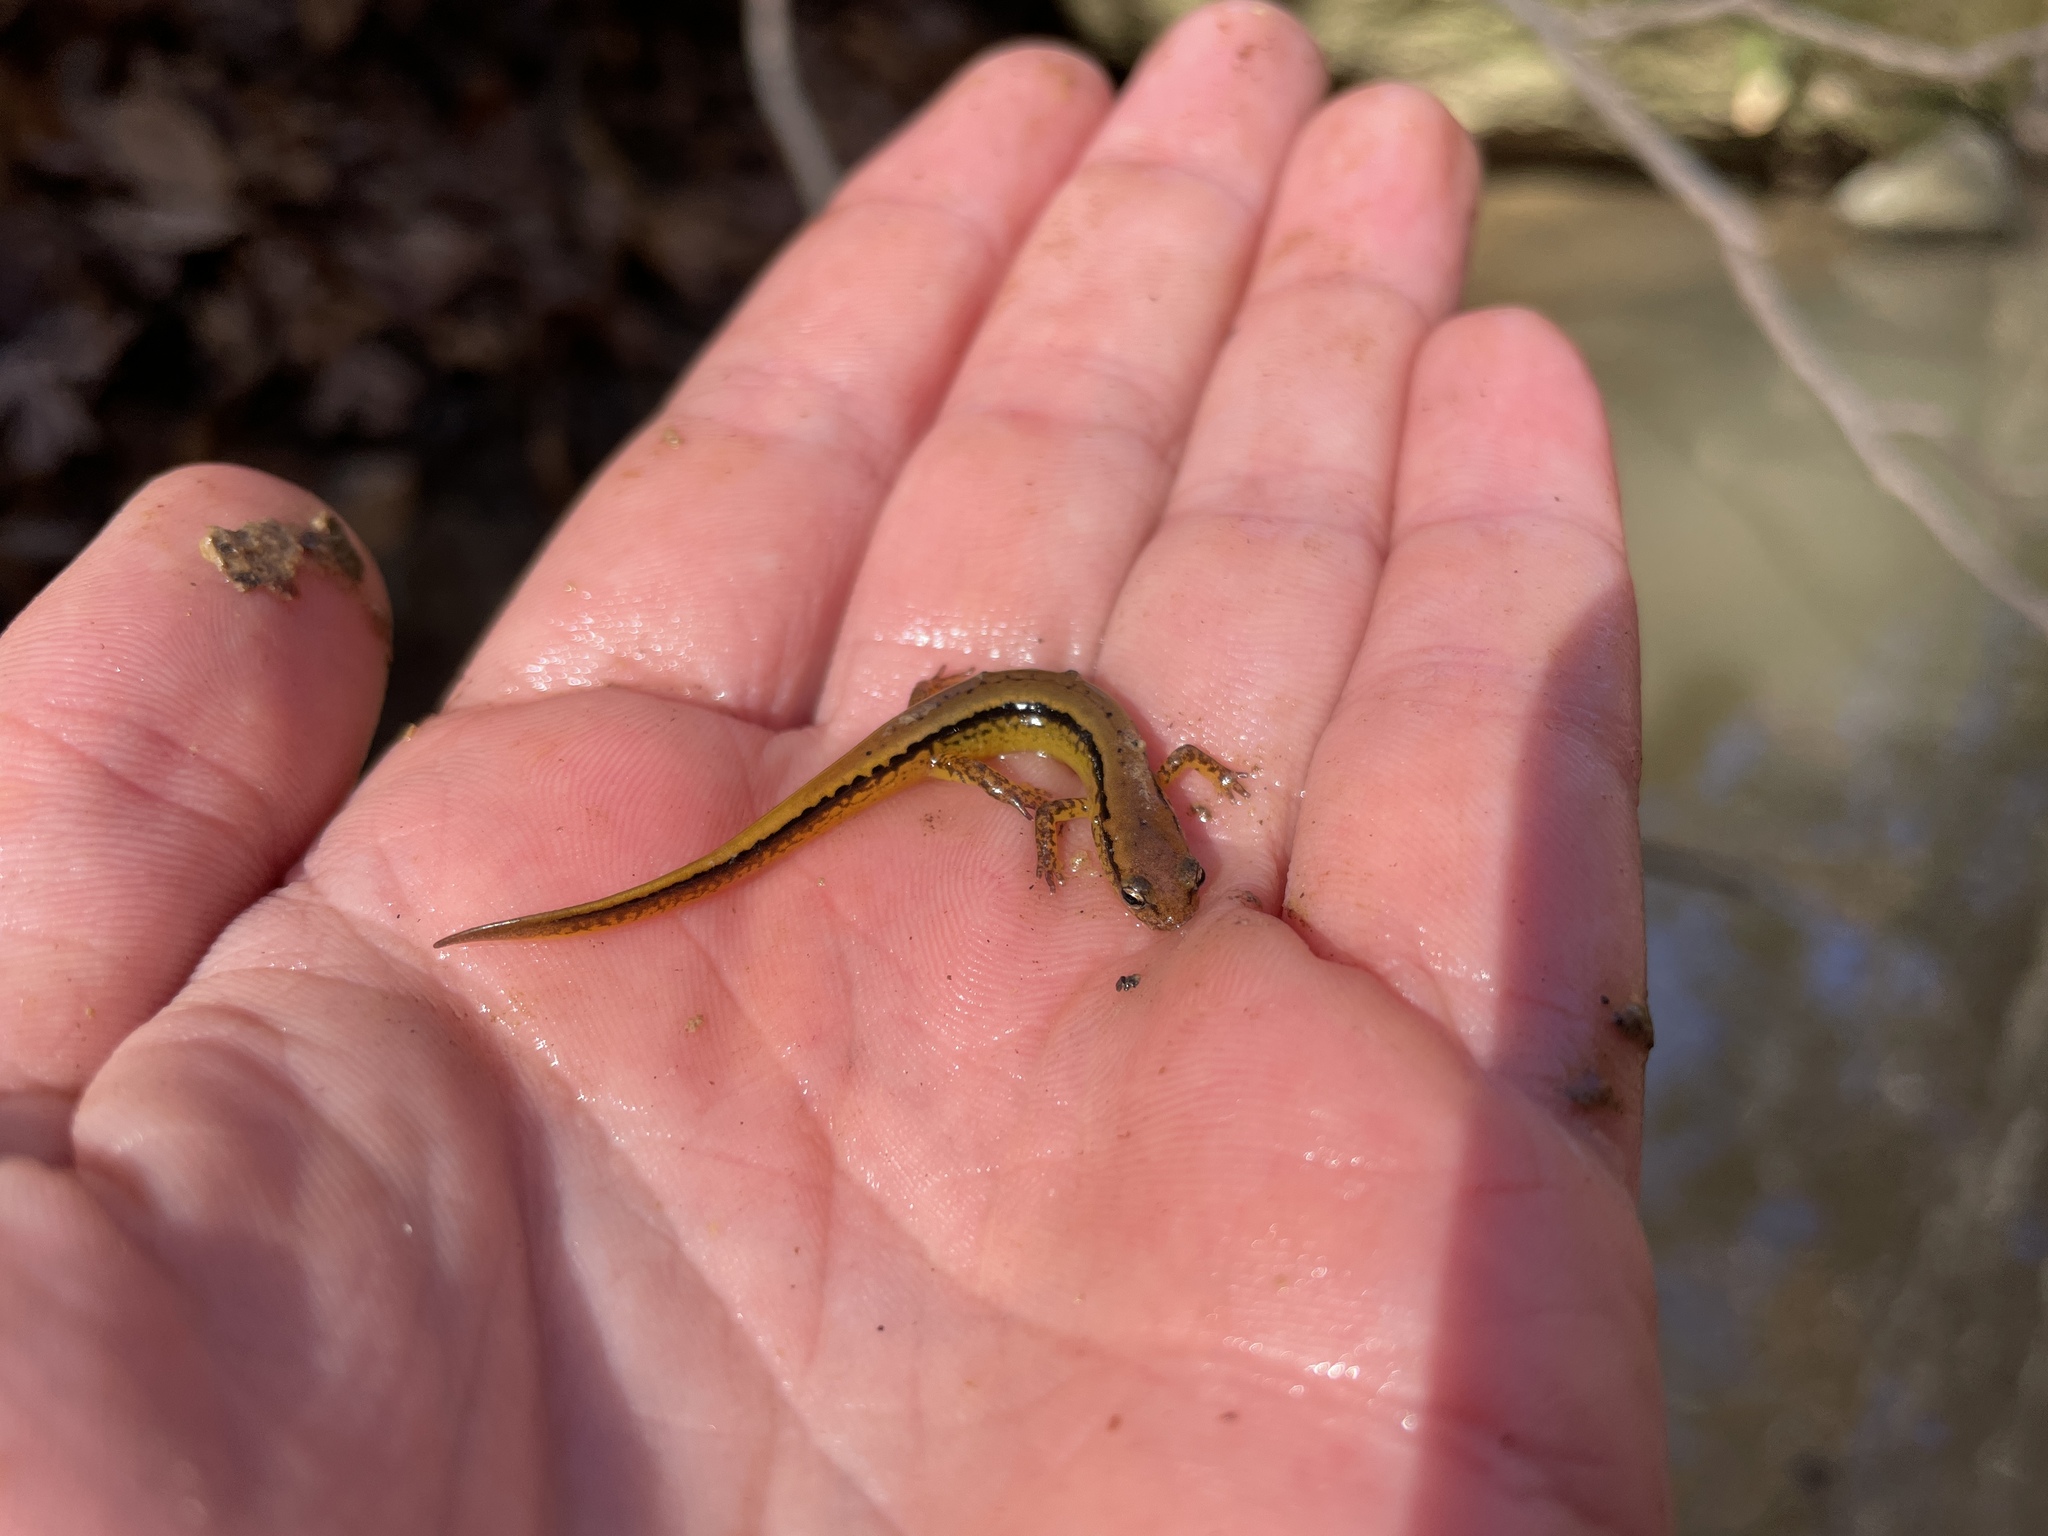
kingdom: Animalia
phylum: Chordata
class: Amphibia
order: Caudata
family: Plethodontidae
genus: Eurycea
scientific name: Eurycea cirrigera
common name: Southern two-lined salamander
